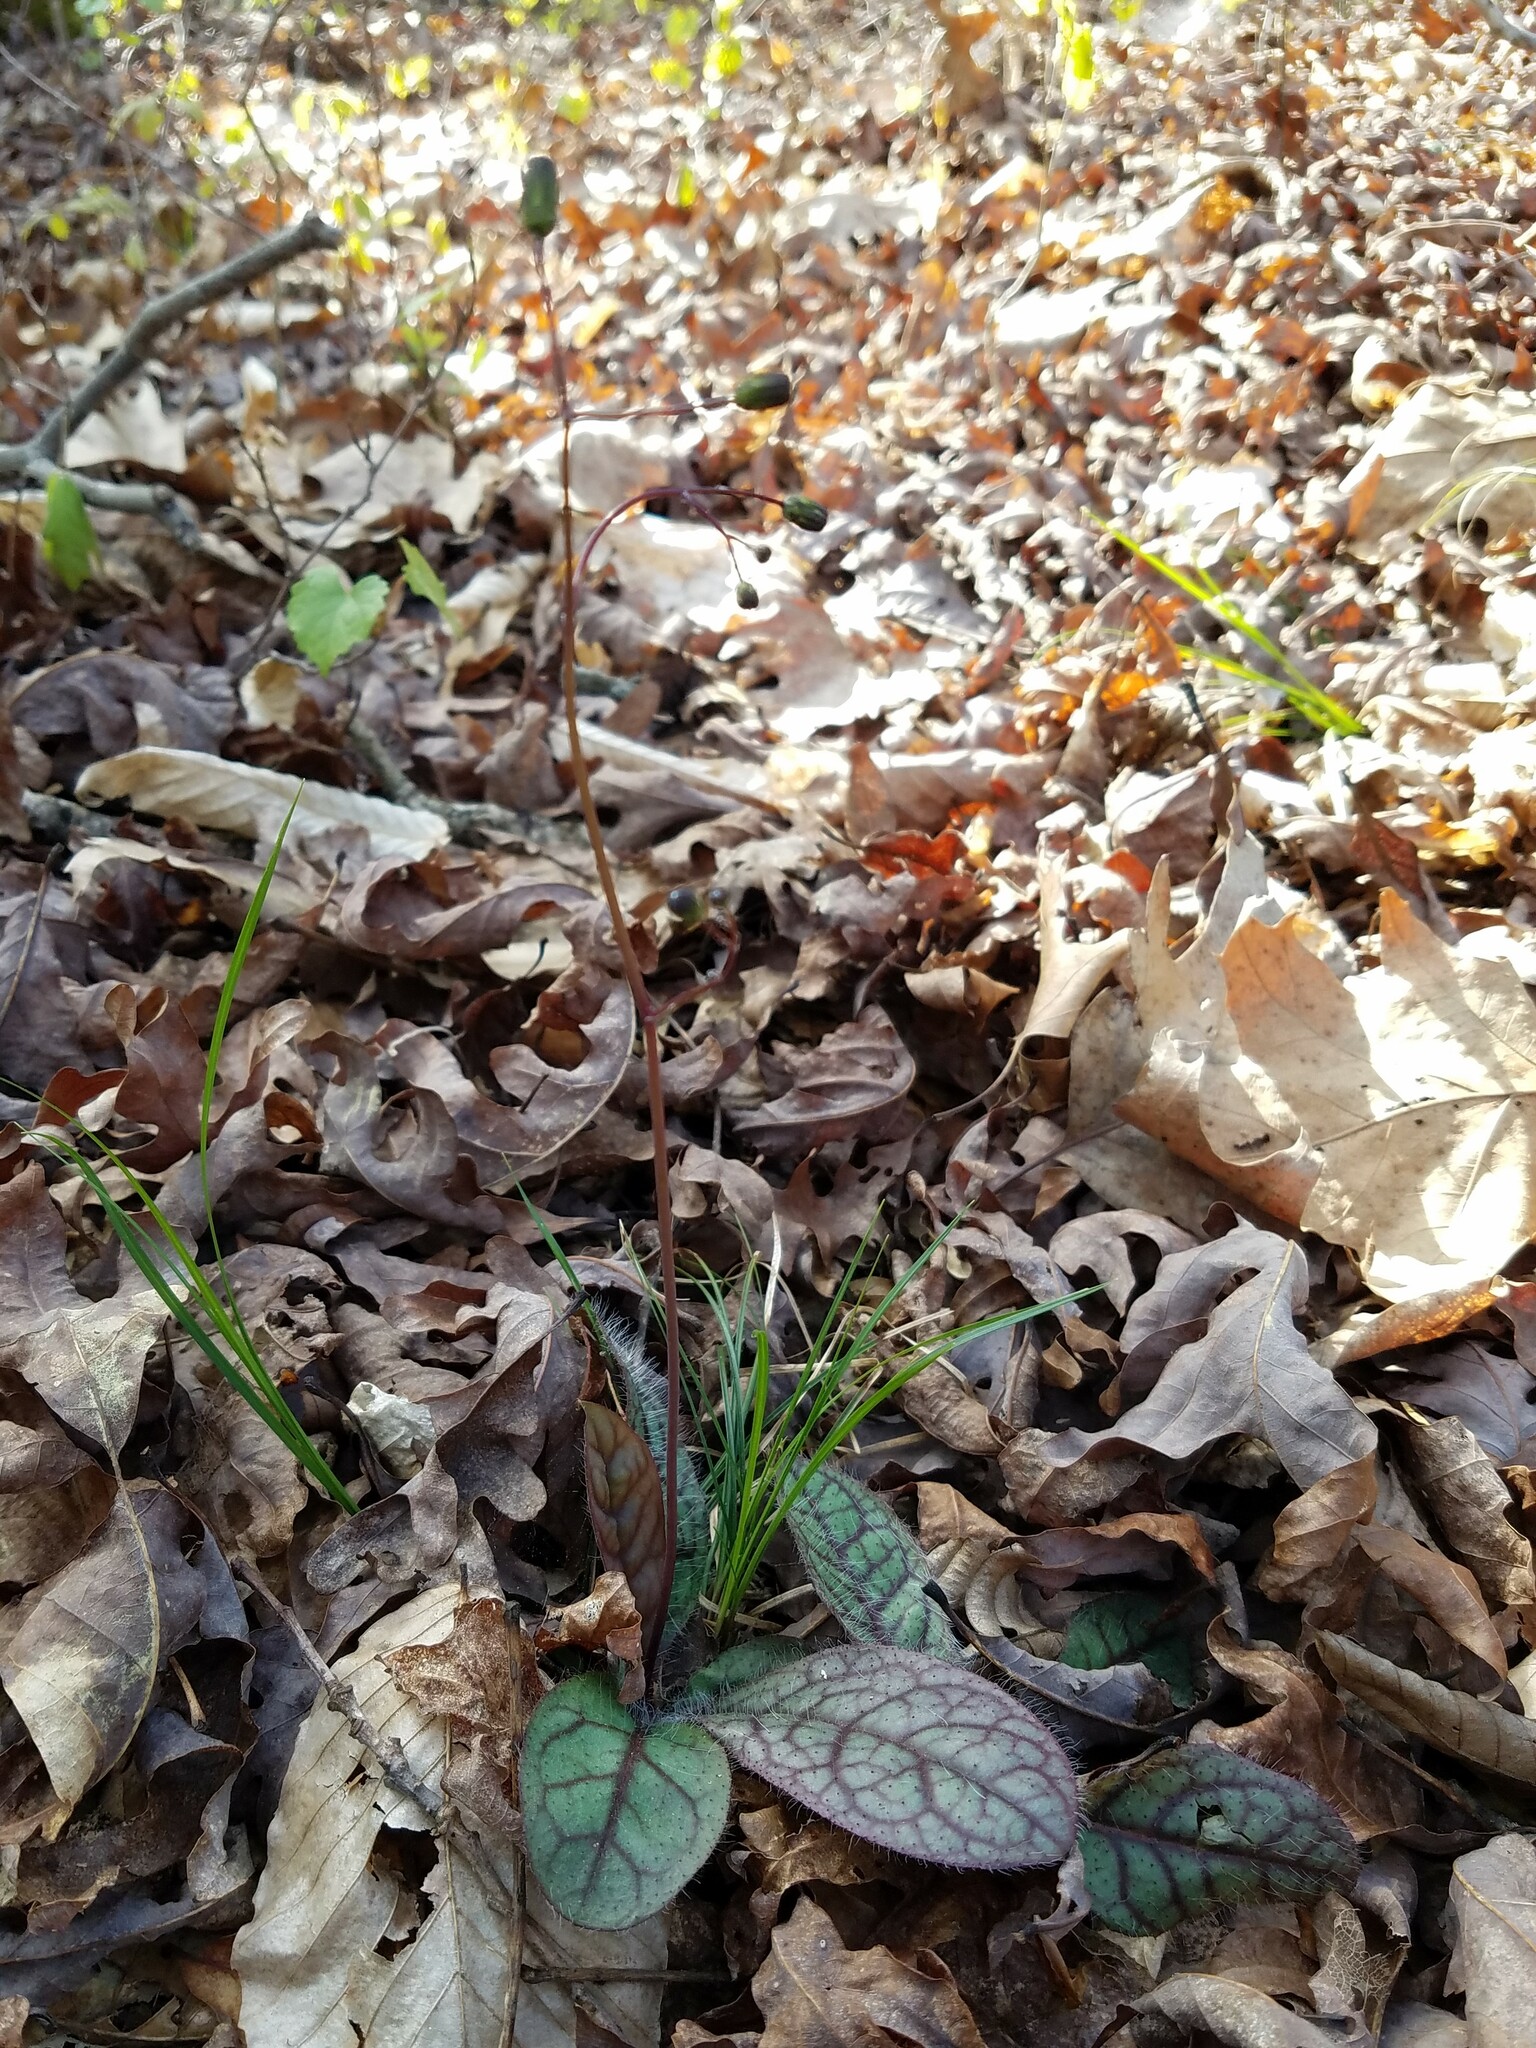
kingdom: Plantae
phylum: Tracheophyta
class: Magnoliopsida
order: Asterales
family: Asteraceae
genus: Hieracium
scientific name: Hieracium venosum
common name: Rattlesnake hawkweed
